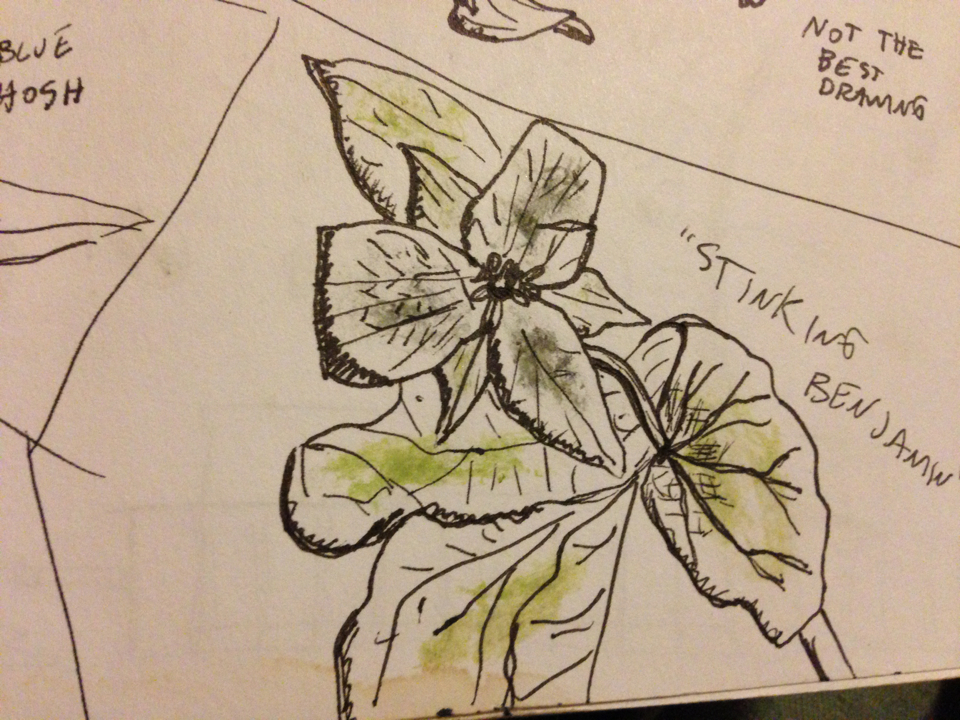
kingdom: Plantae
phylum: Tracheophyta
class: Liliopsida
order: Liliales
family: Melanthiaceae
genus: Trillium
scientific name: Trillium erectum
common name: Purple trillium
